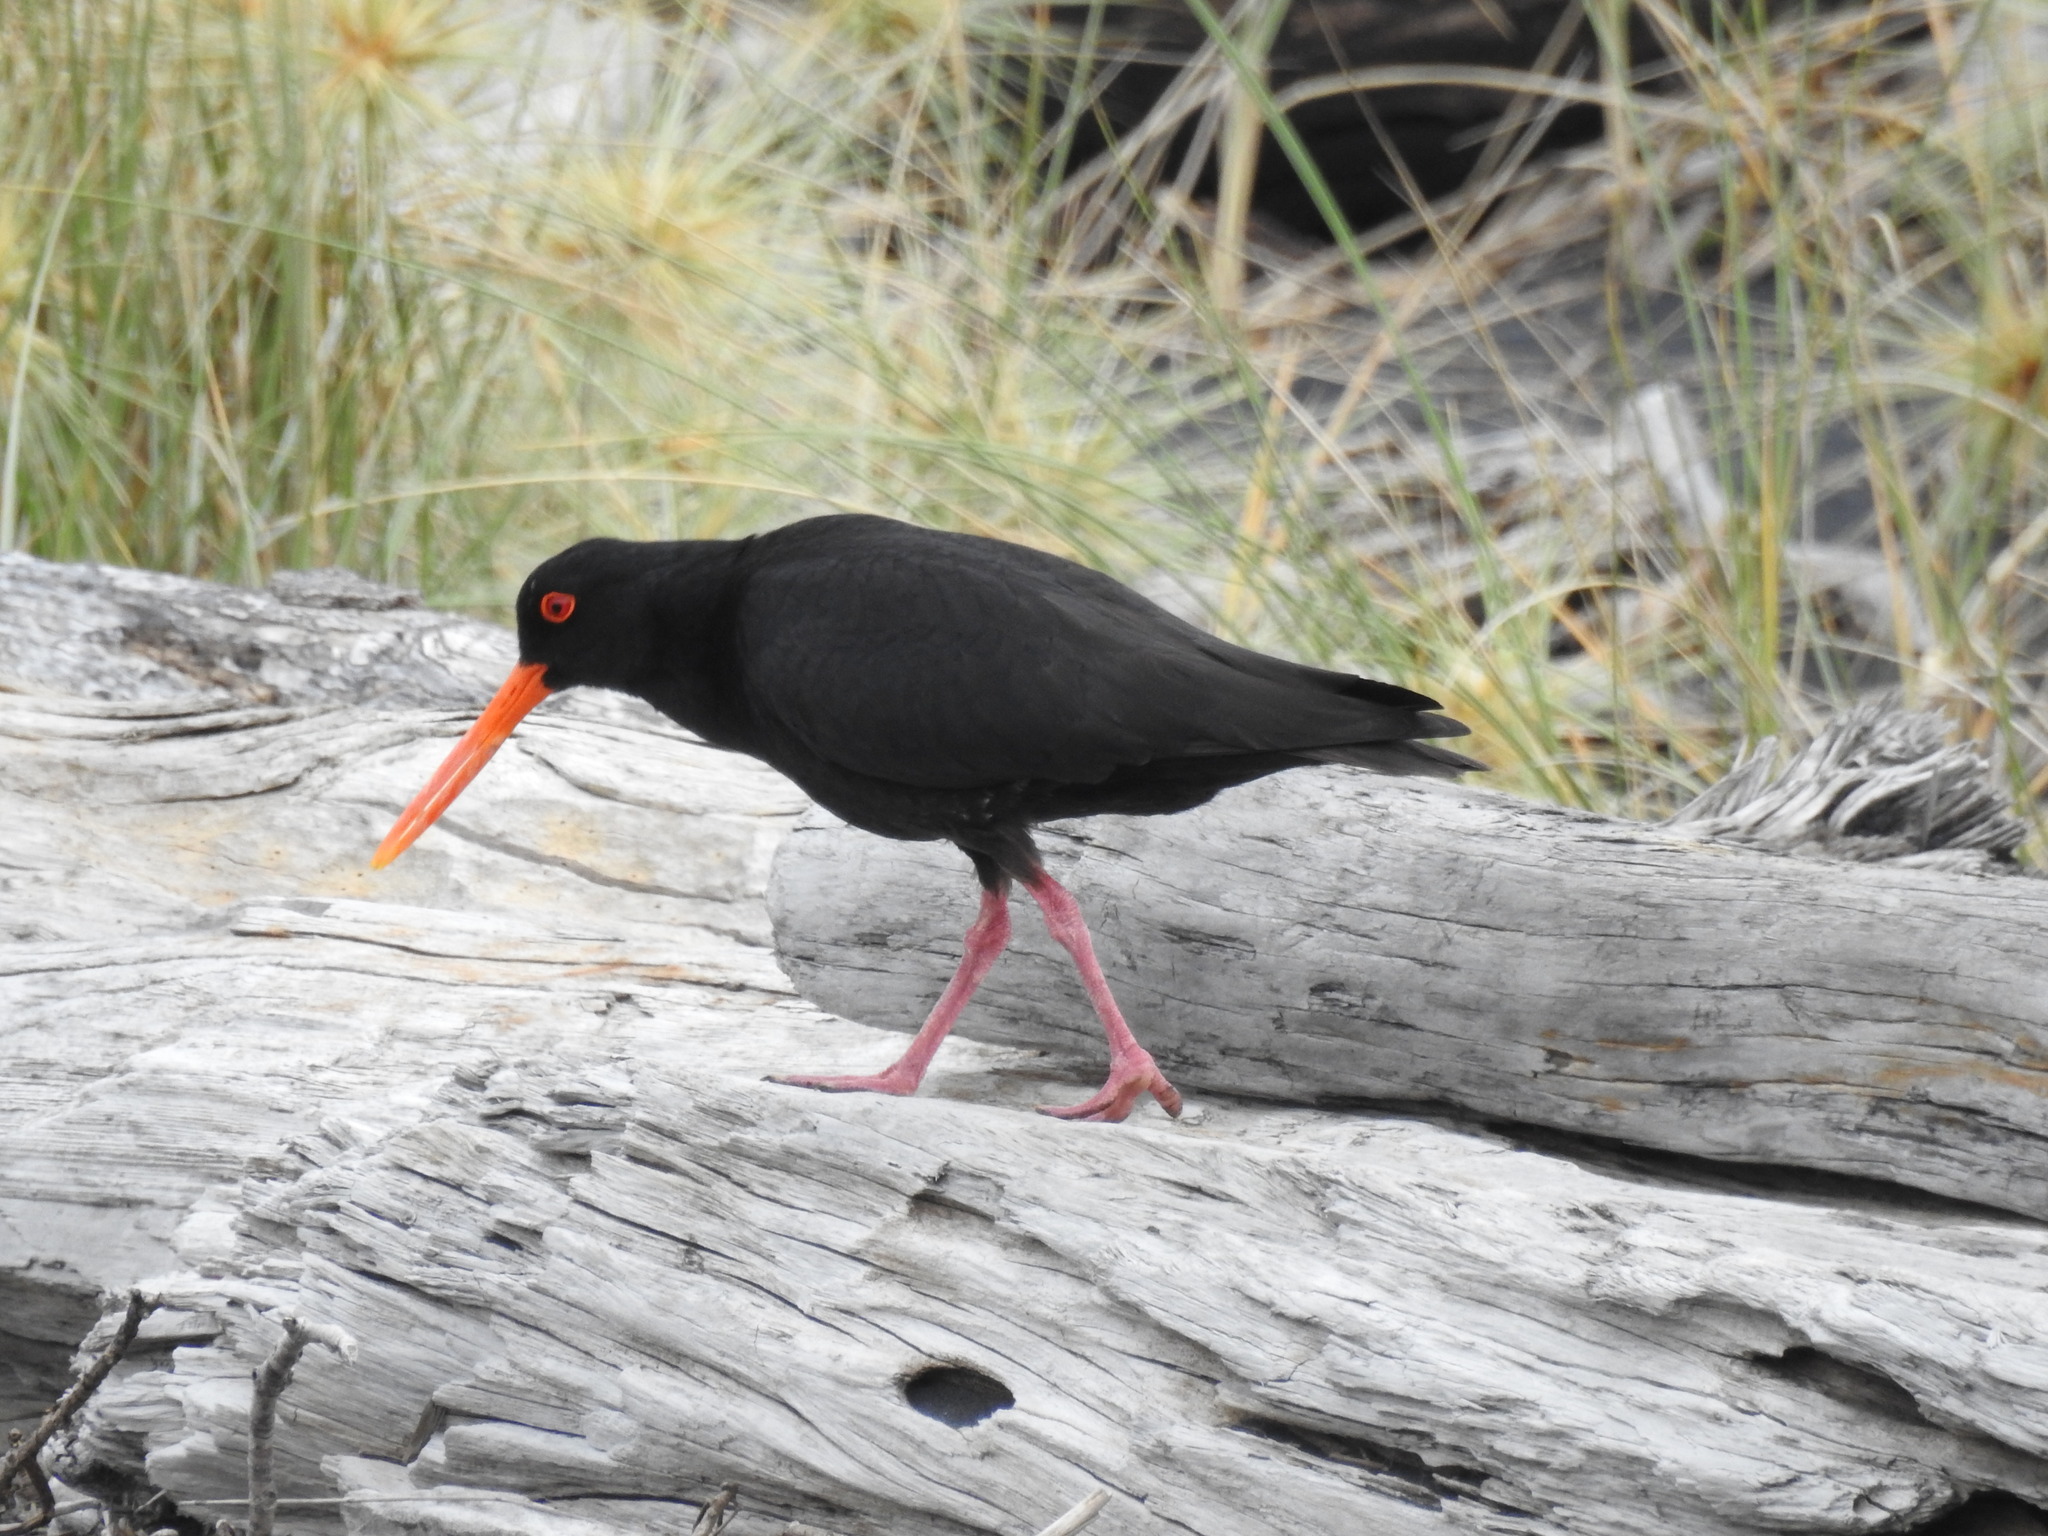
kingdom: Animalia
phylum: Chordata
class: Aves
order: Charadriiformes
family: Haematopodidae
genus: Haematopus
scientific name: Haematopus unicolor
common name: Variable oystercatcher
